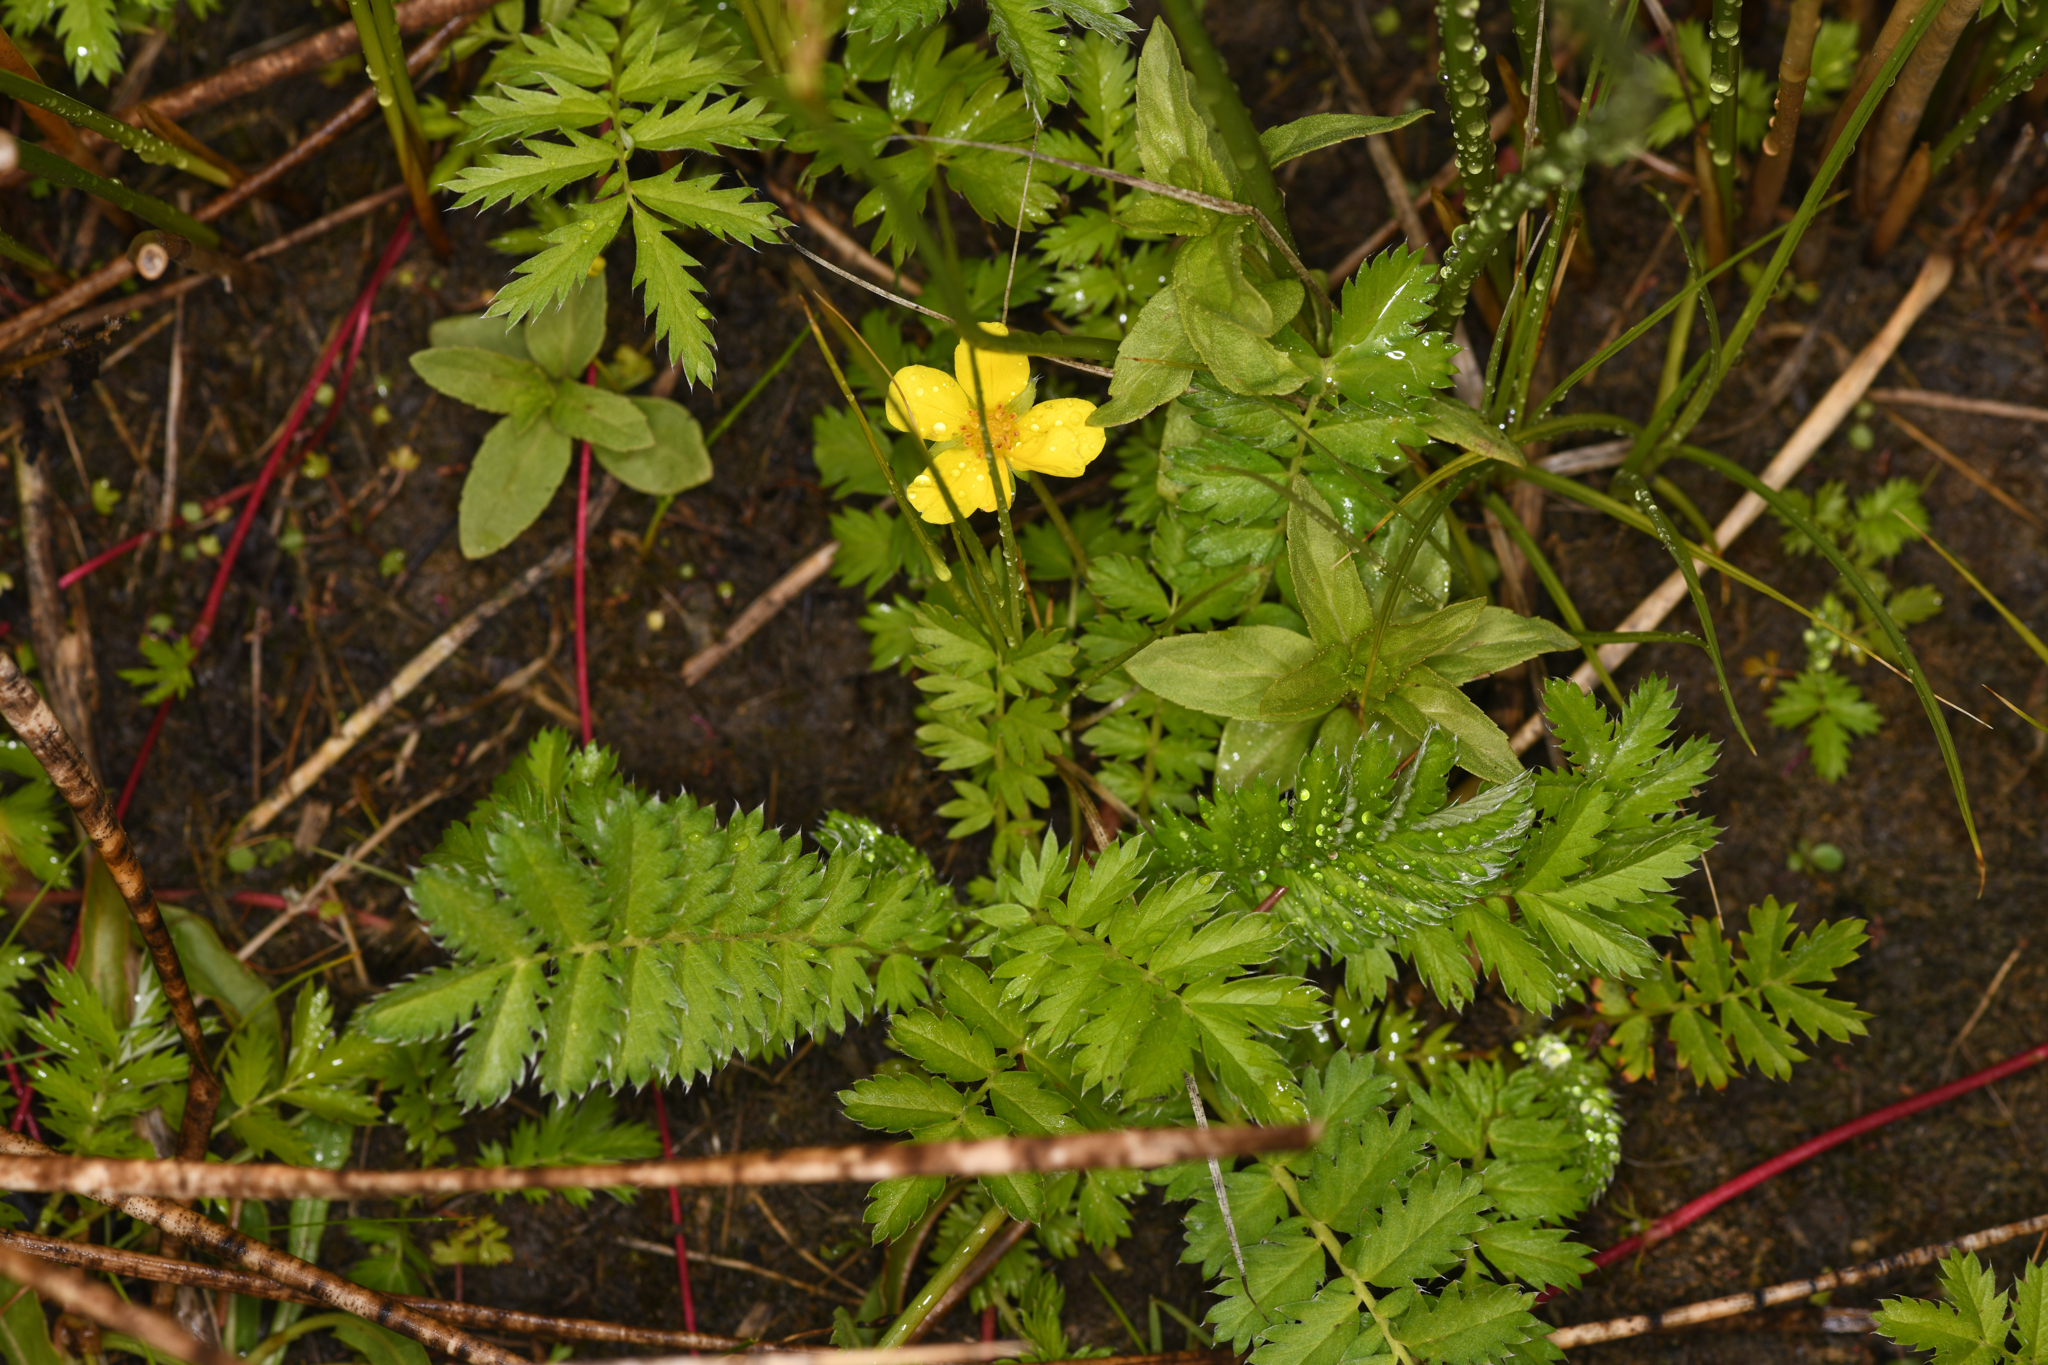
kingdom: Plantae
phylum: Tracheophyta
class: Magnoliopsida
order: Rosales
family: Rosaceae
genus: Argentina
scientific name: Argentina anserina
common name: Common silverweed
